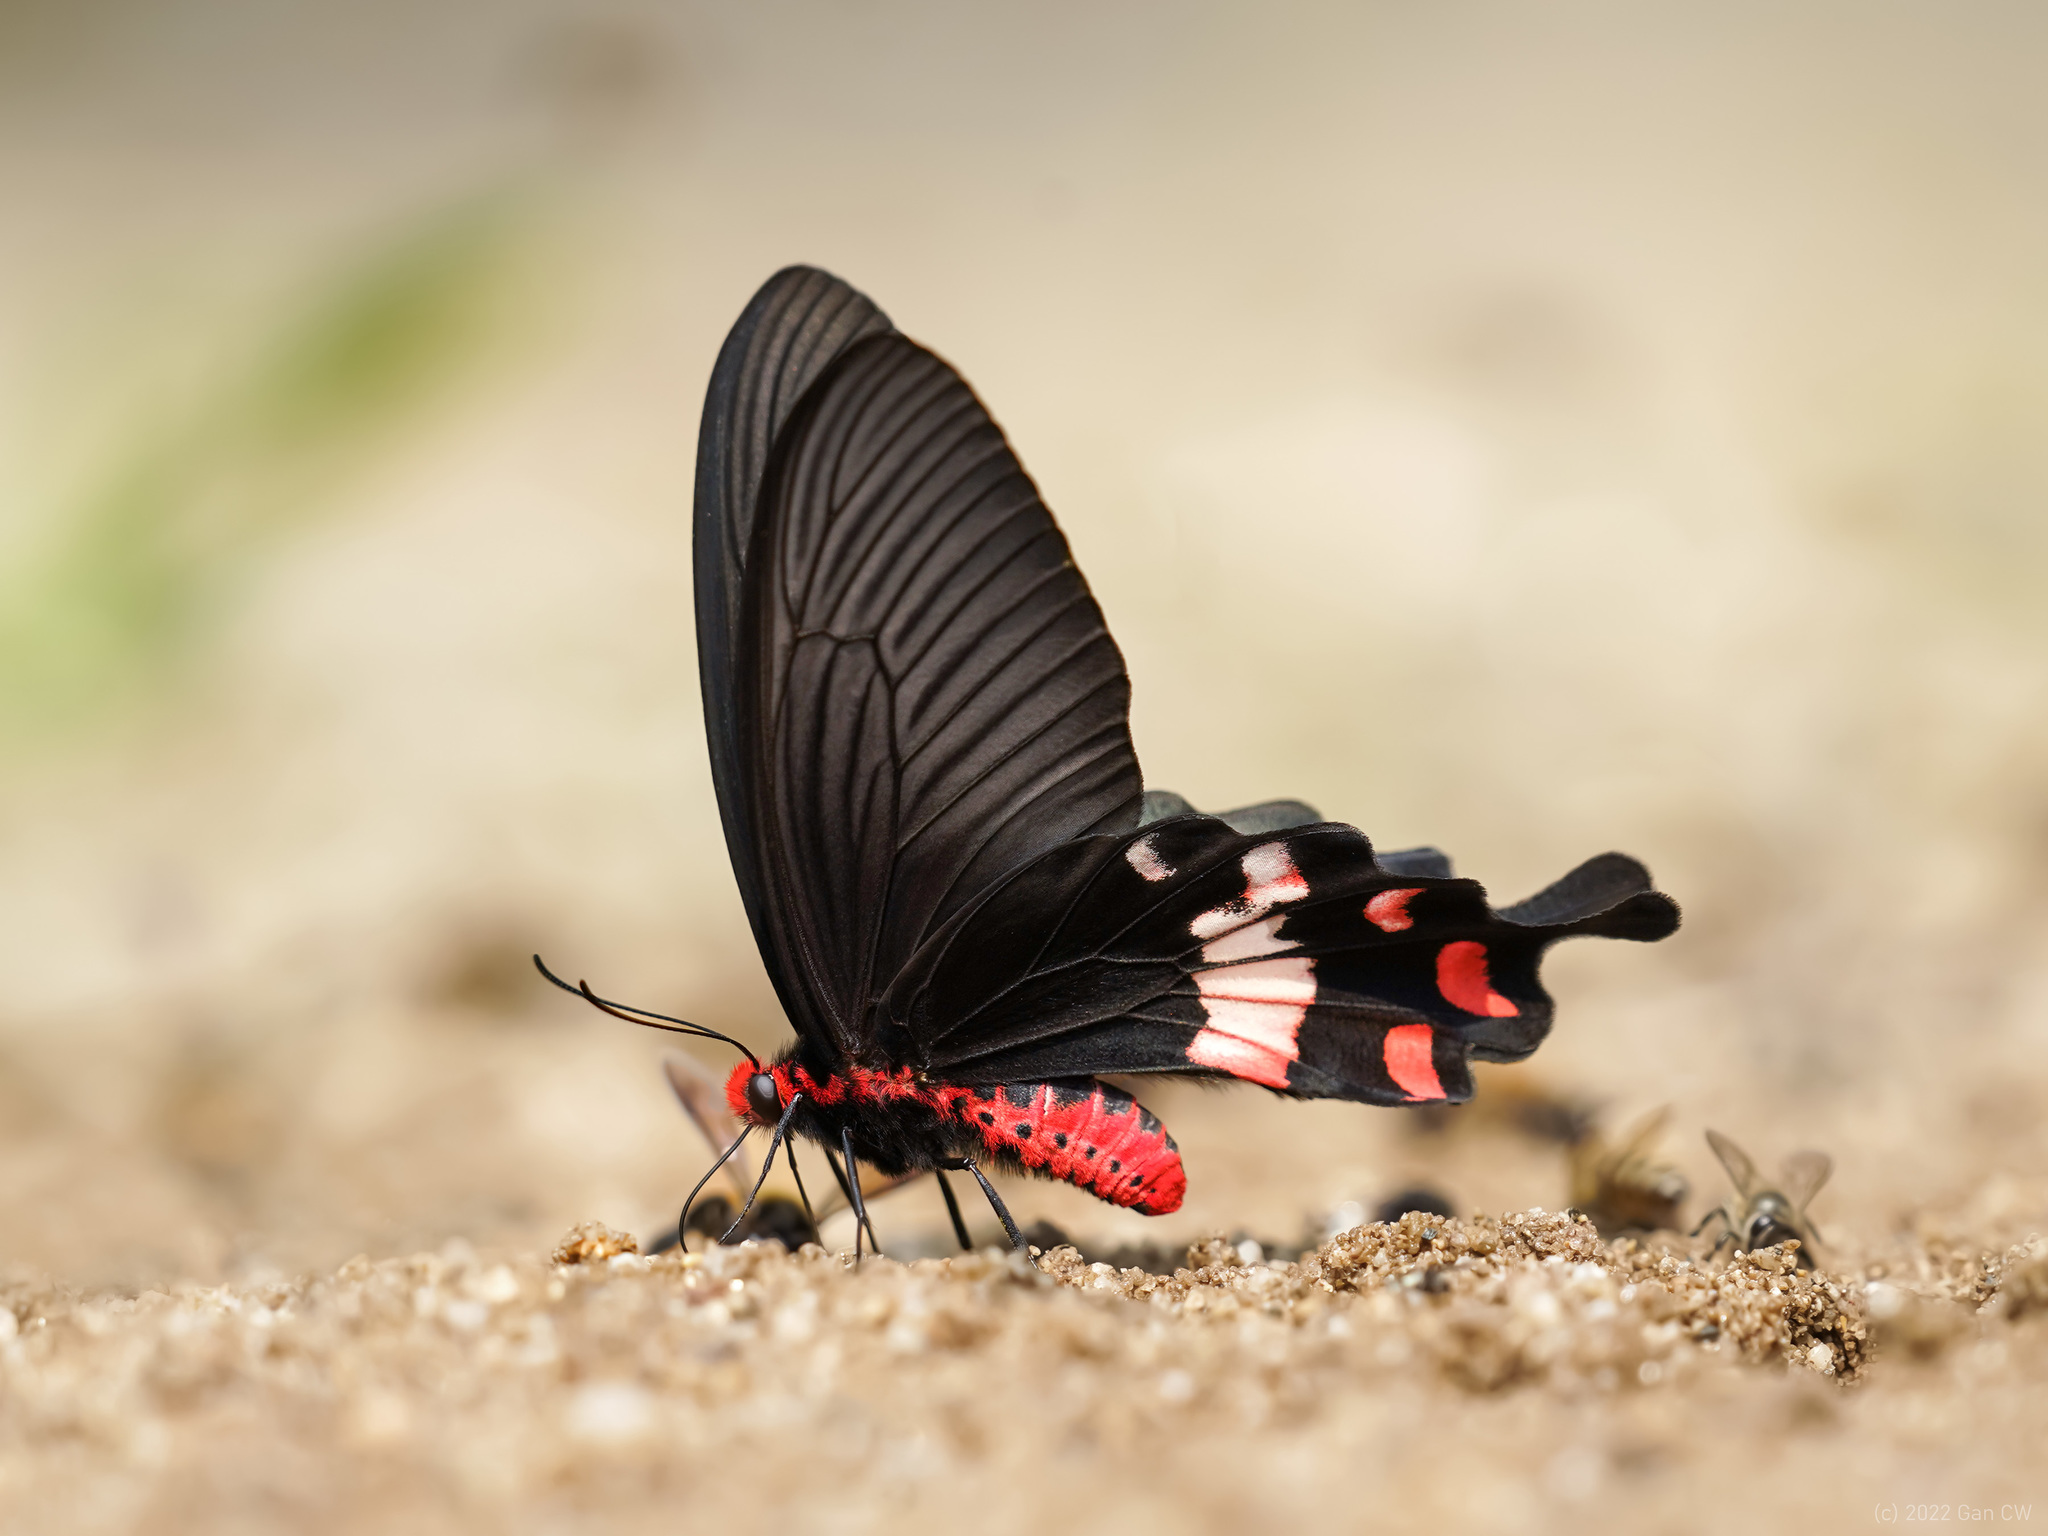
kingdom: Animalia
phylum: Arthropoda
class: Insecta
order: Lepidoptera
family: Papilionidae
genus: Byasa
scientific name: Byasa adamsoni
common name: Adamson's rose
